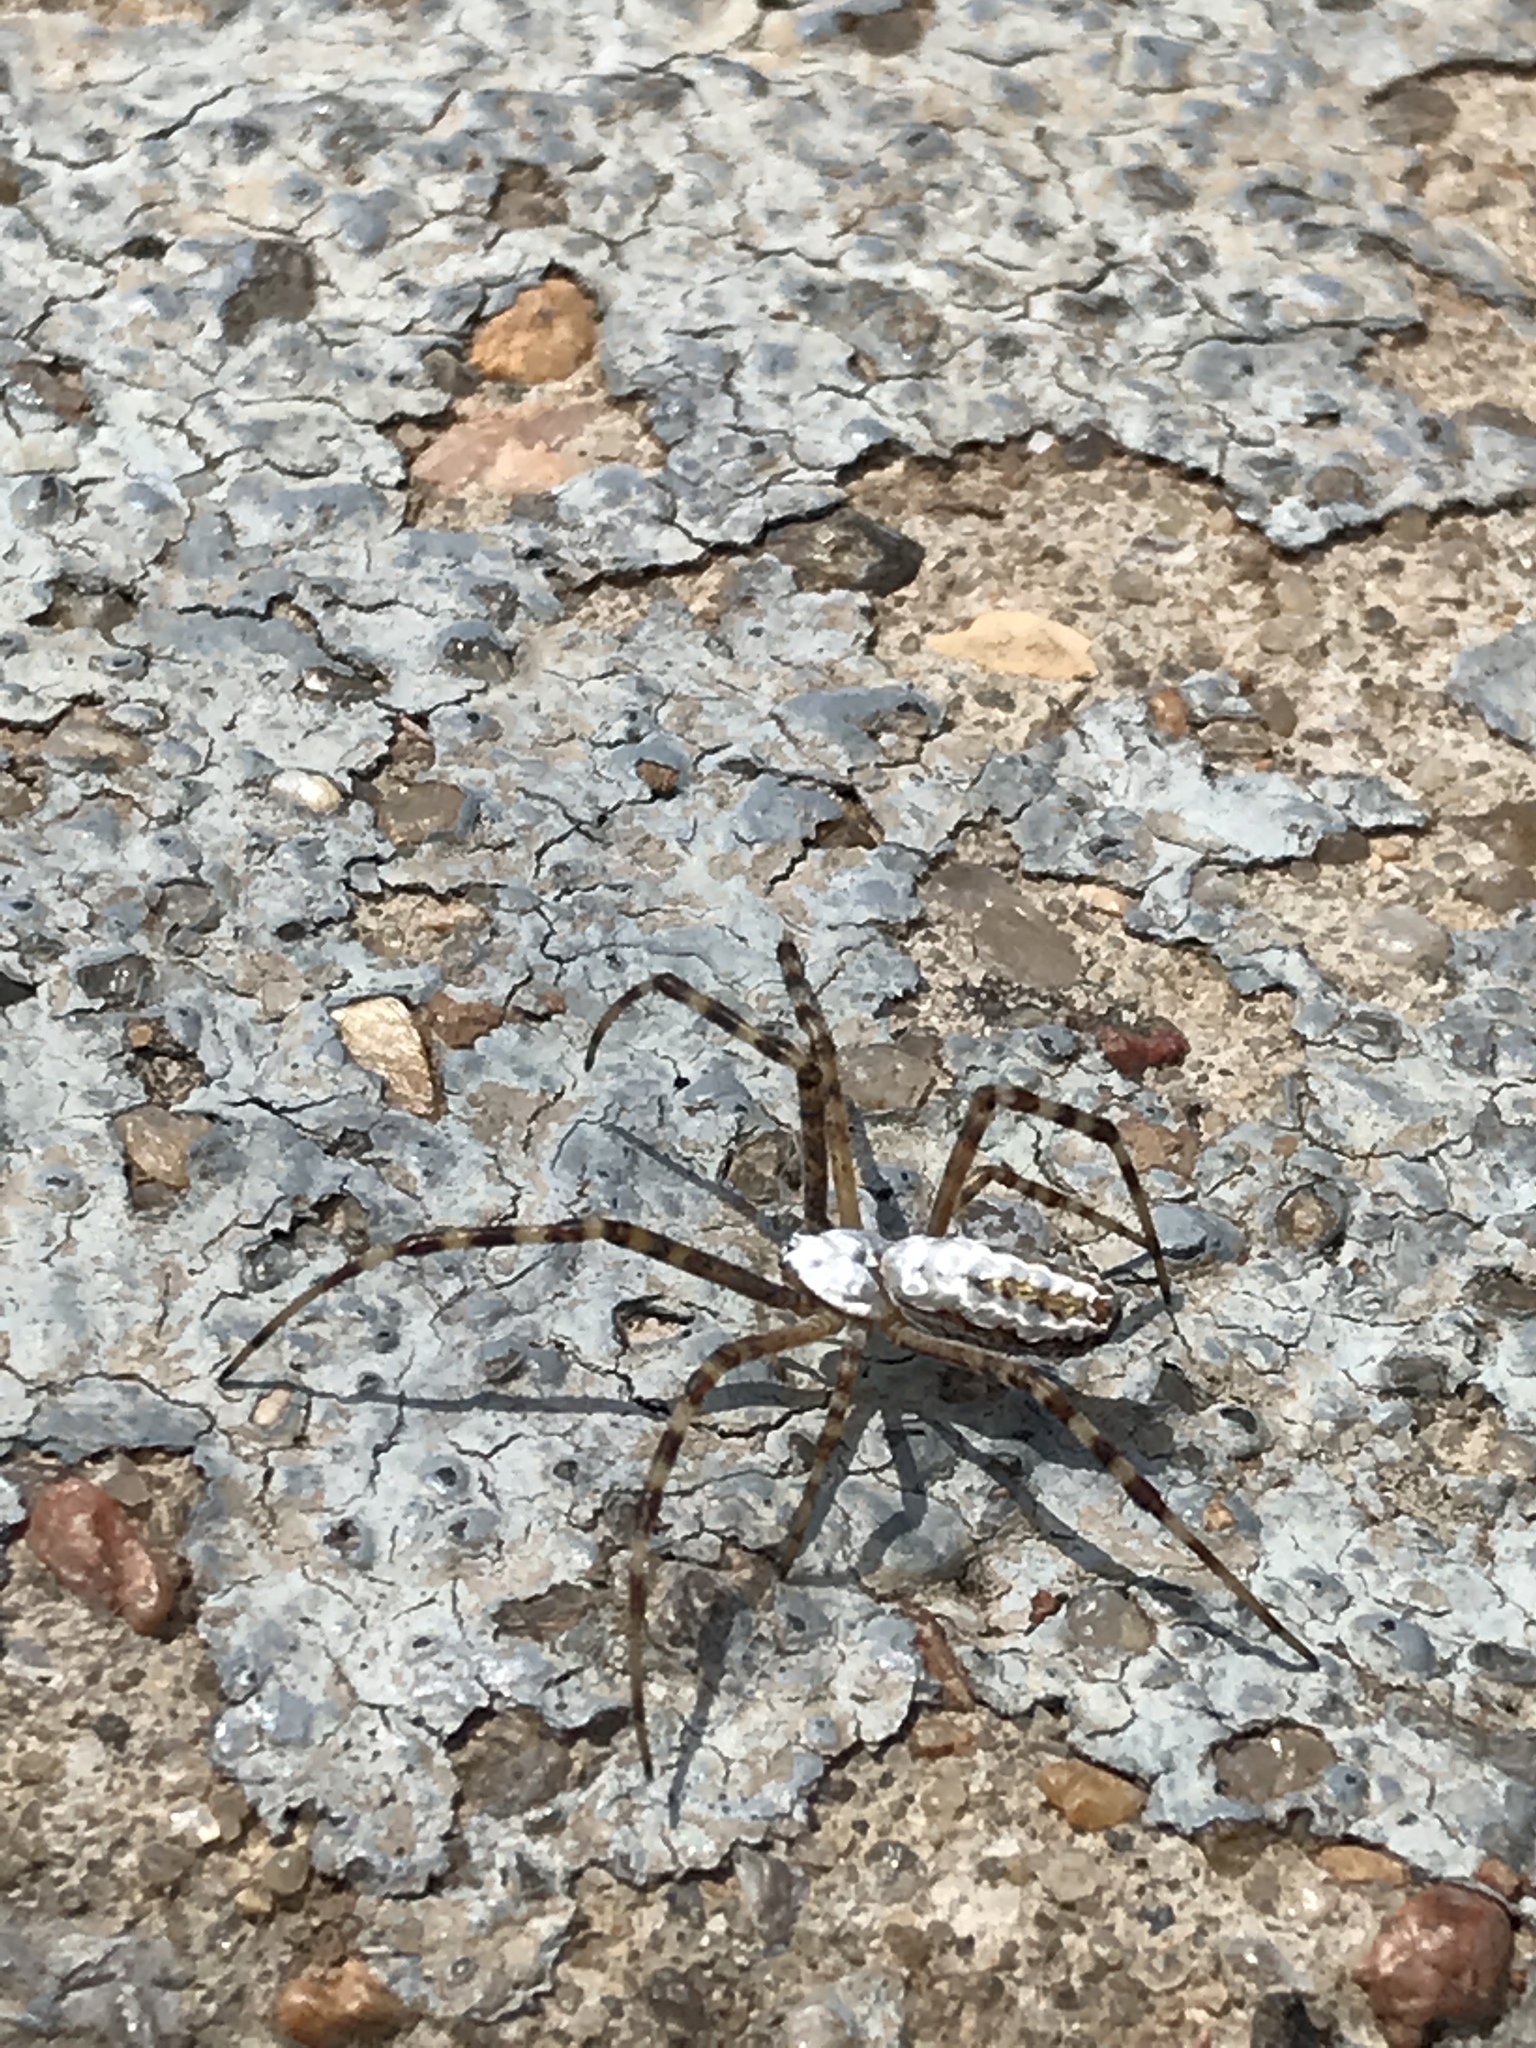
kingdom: Animalia
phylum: Arthropoda
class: Arachnida
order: Araneae
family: Araneidae
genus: Argiope
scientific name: Argiope trifasciata
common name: Banded garden spider
